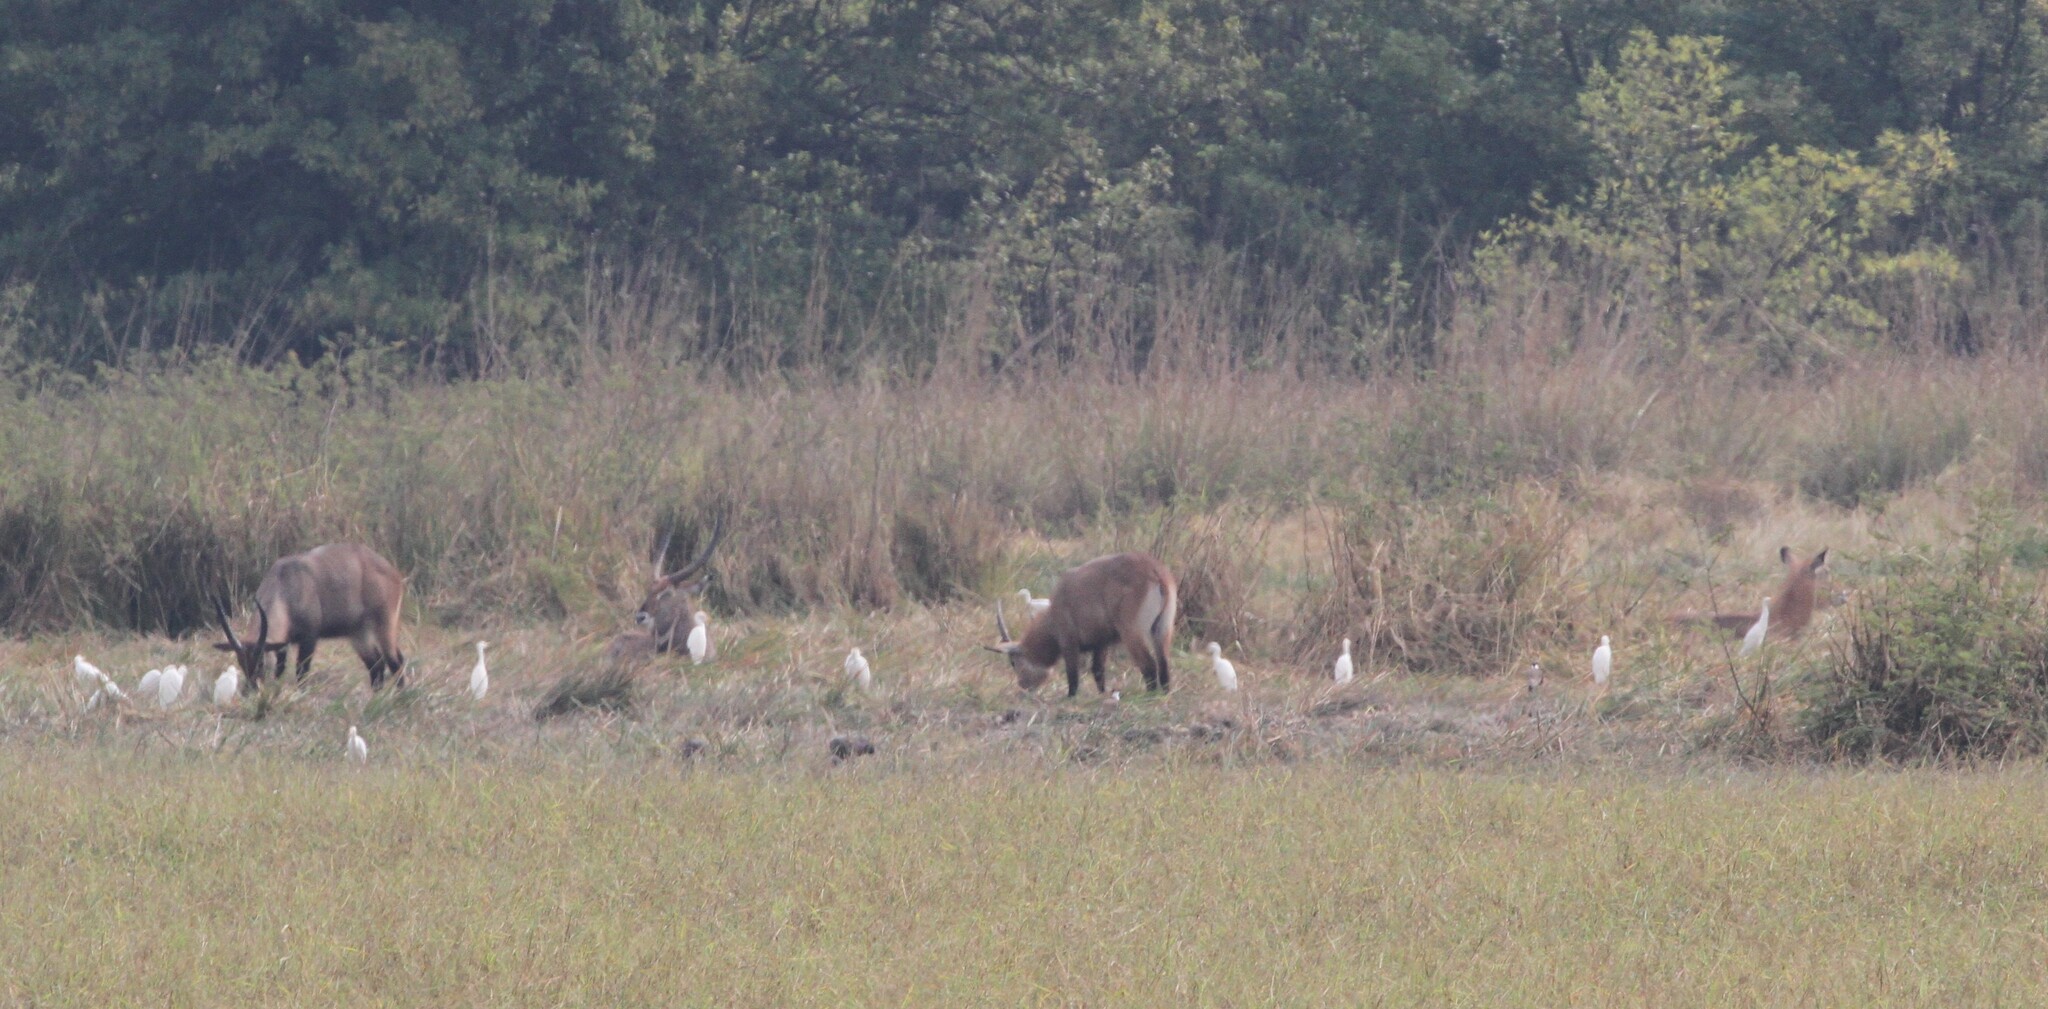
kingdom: Animalia
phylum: Chordata
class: Mammalia
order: Artiodactyla
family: Bovidae
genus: Kobus
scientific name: Kobus ellipsiprymnus
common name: Waterbuck
